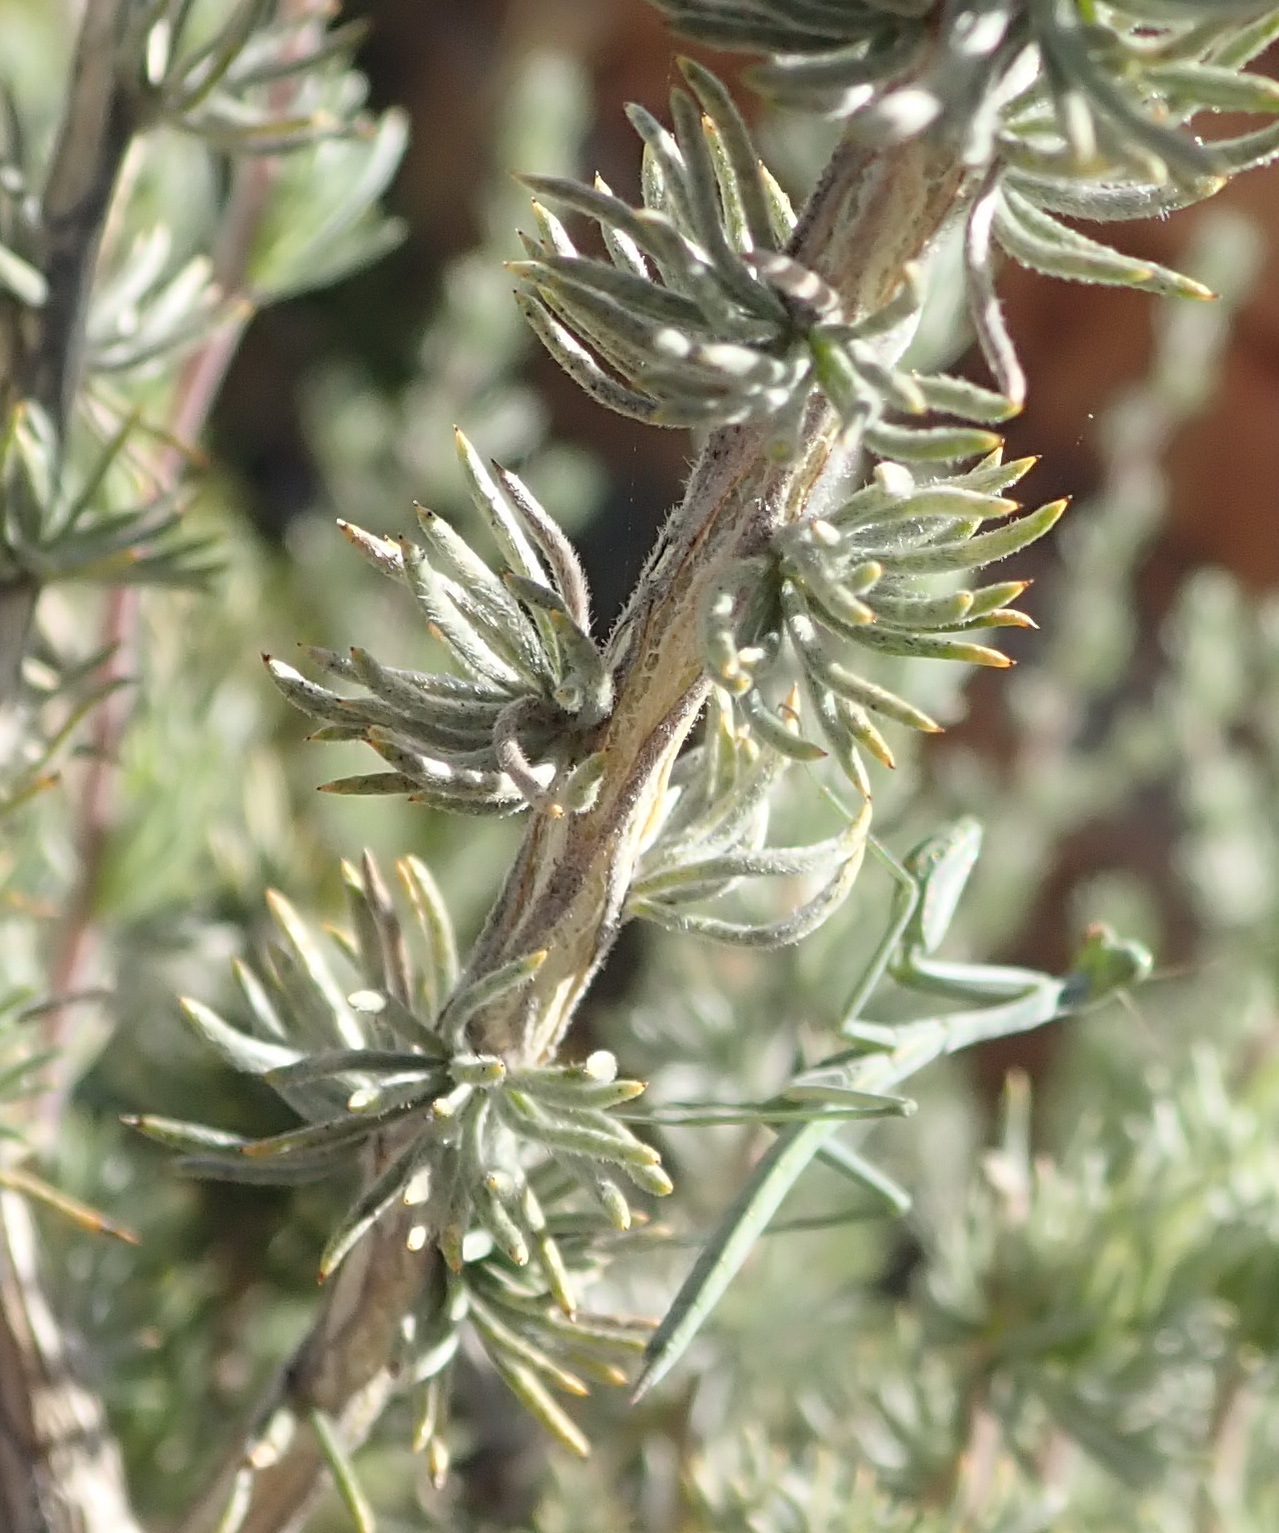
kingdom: Plantae
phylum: Tracheophyta
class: Magnoliopsida
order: Fabales
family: Fabaceae
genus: Aspalathus
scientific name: Aspalathus kougaensis
